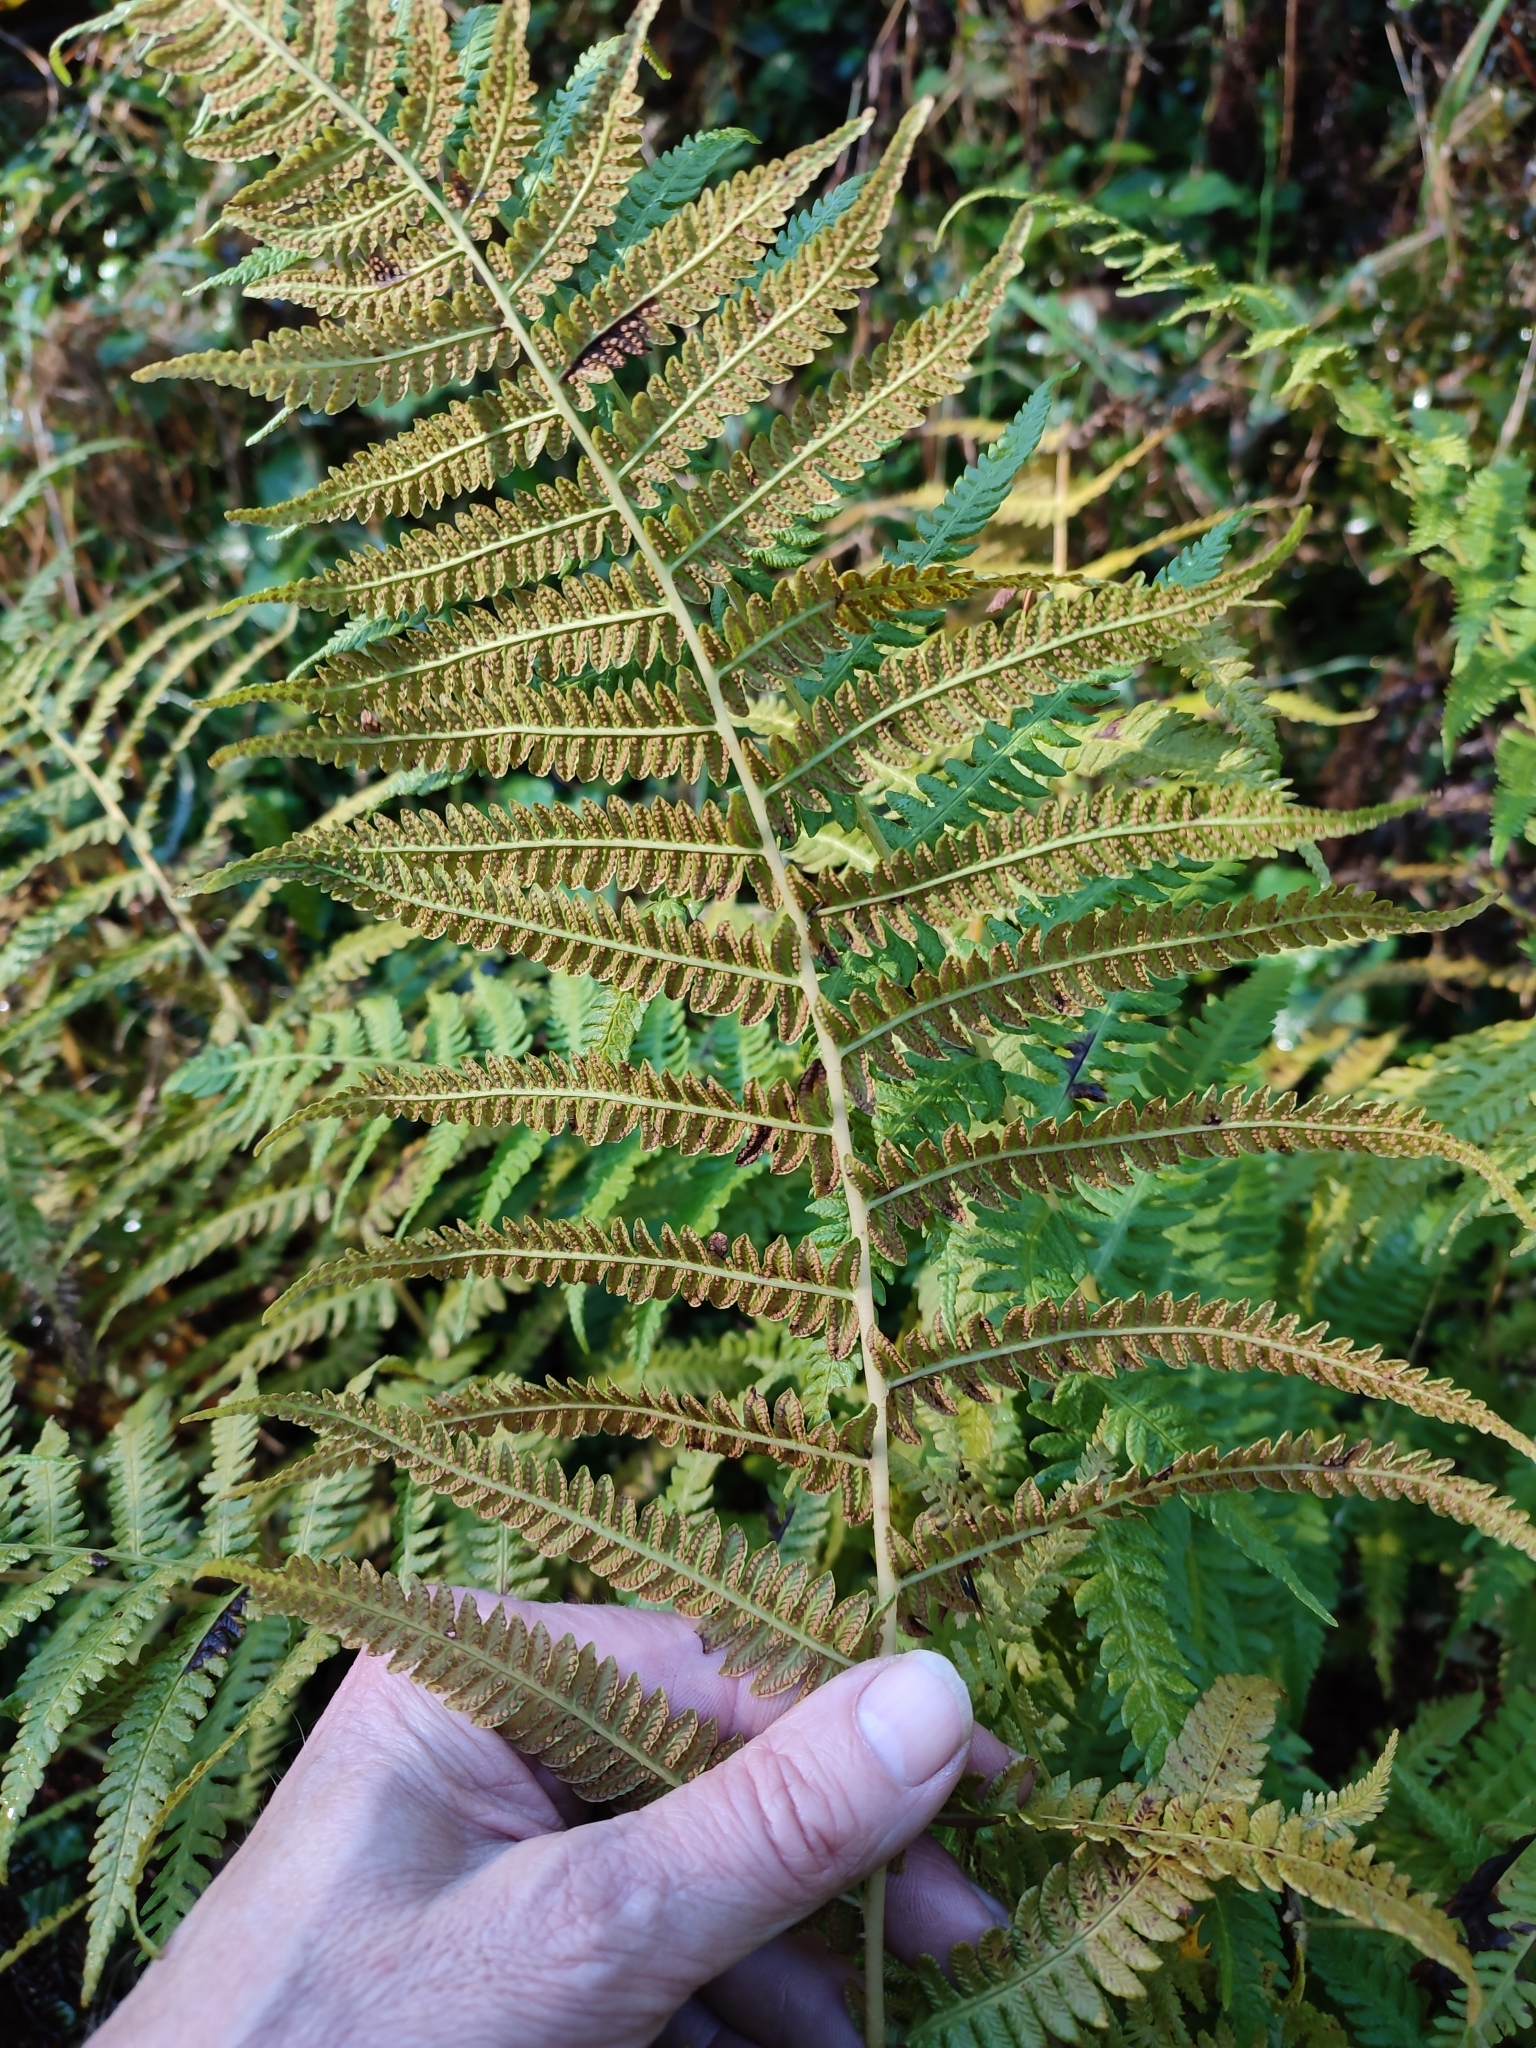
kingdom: Plantae
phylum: Tracheophyta
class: Polypodiopsida
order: Polypodiales
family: Thelypteridaceae
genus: Oreopteris
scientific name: Oreopteris limbosperma
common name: Lemon-scented fern
